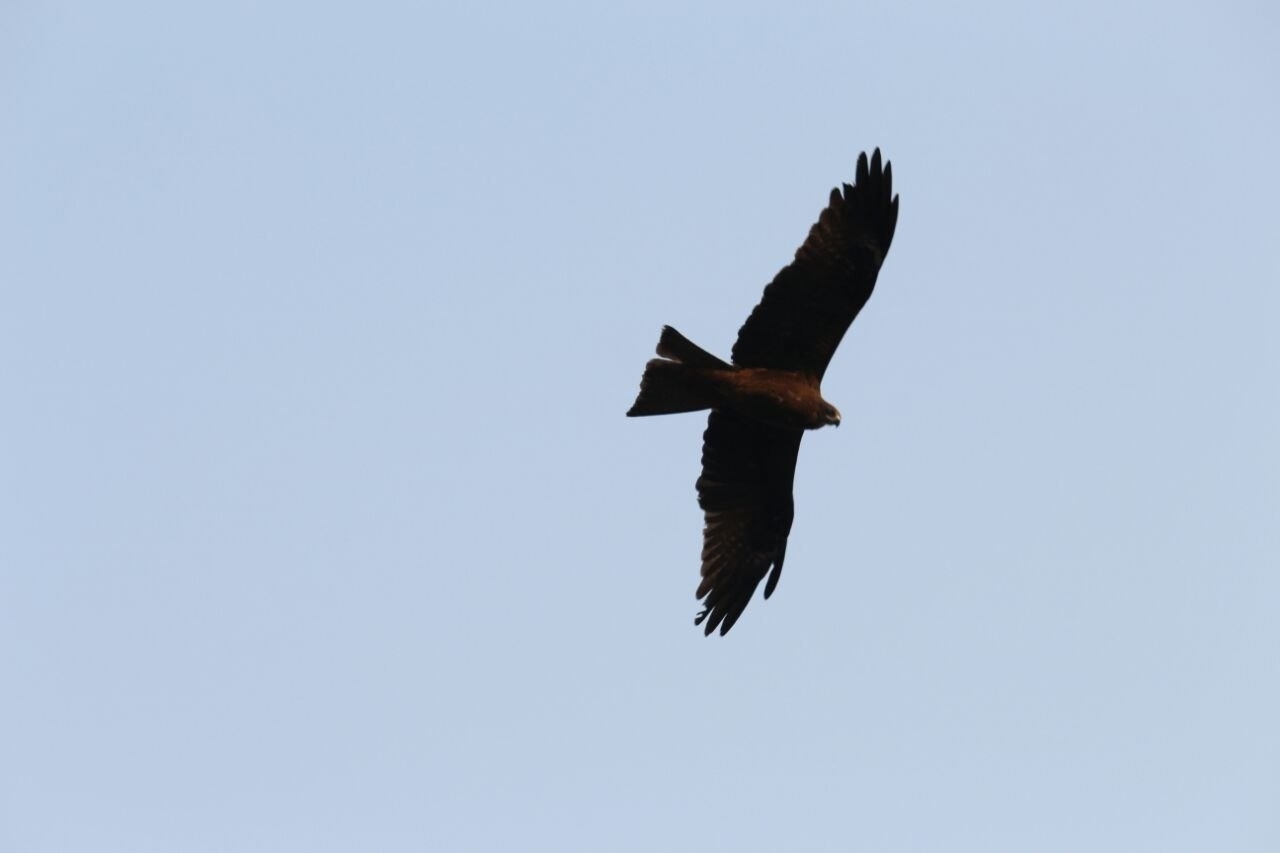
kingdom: Animalia
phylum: Chordata
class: Aves
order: Accipitriformes
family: Accipitridae
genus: Milvus
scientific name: Milvus migrans
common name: Black kite
